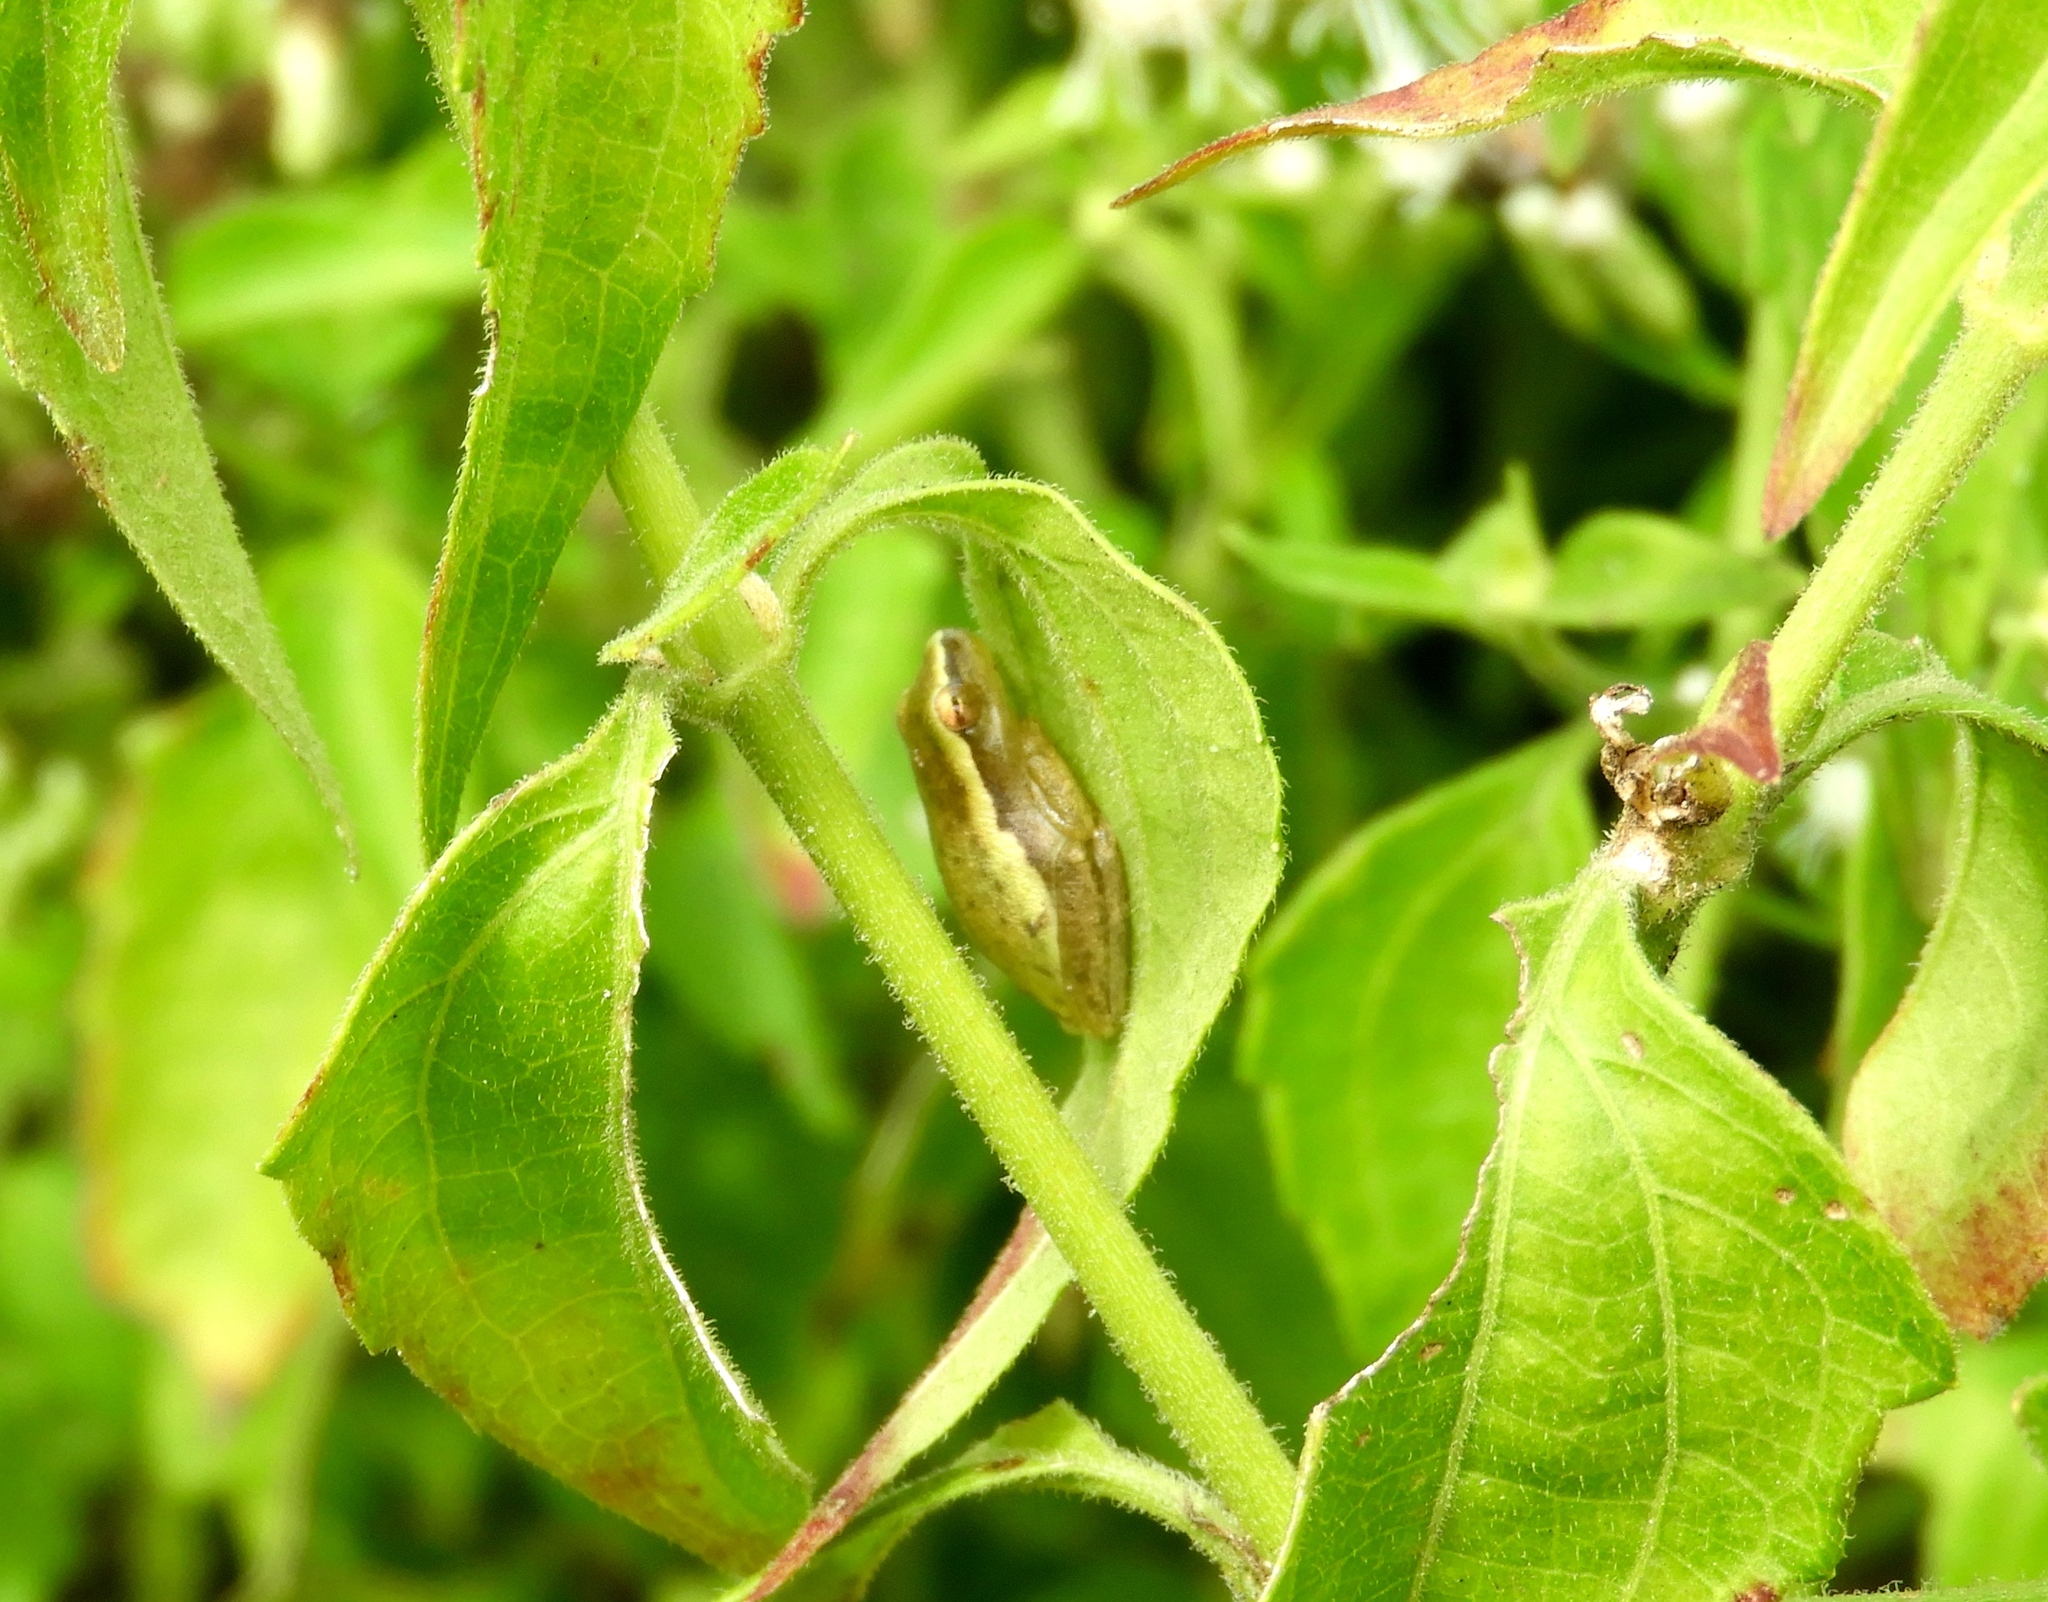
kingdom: Animalia
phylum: Chordata
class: Amphibia
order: Anura
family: Hylidae
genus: Tlalocohyla
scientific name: Tlalocohyla smithii
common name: Dwarf mexican treefrog
